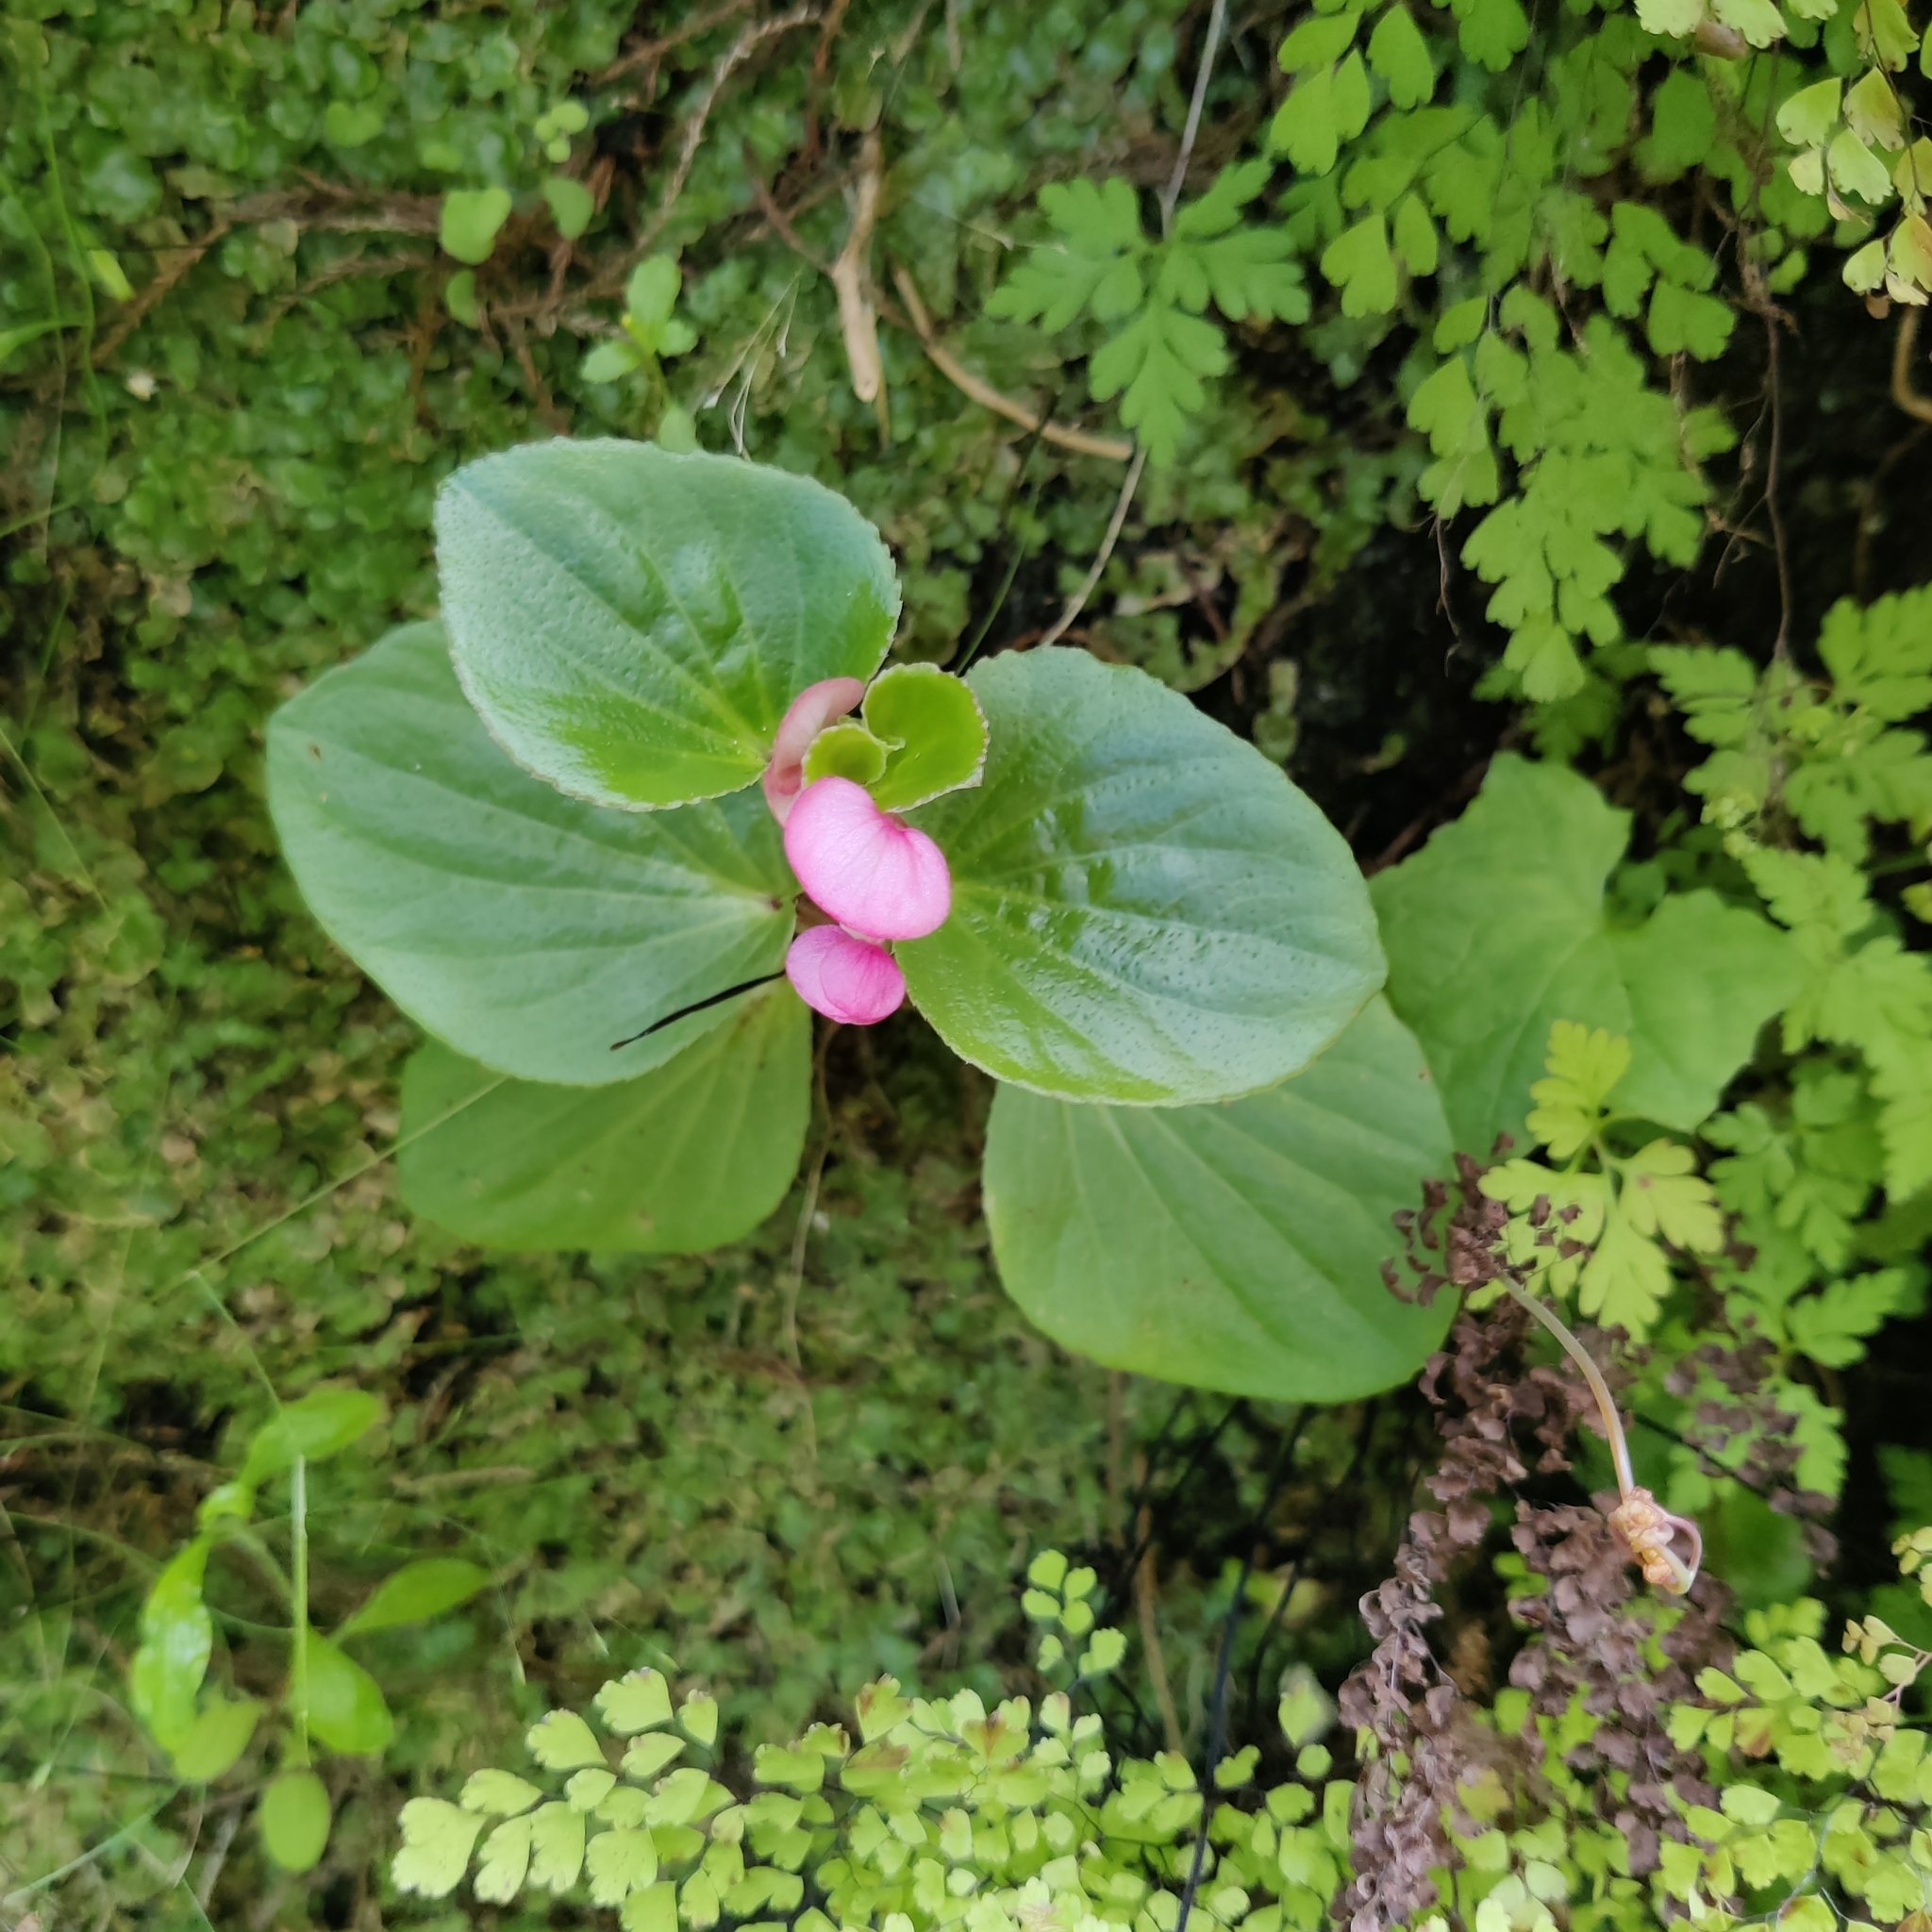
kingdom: Plantae
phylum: Tracheophyta
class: Magnoliopsida
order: Cucurbitales
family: Begoniaceae
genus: Begonia
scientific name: Begonia semperflorens-cultorum
